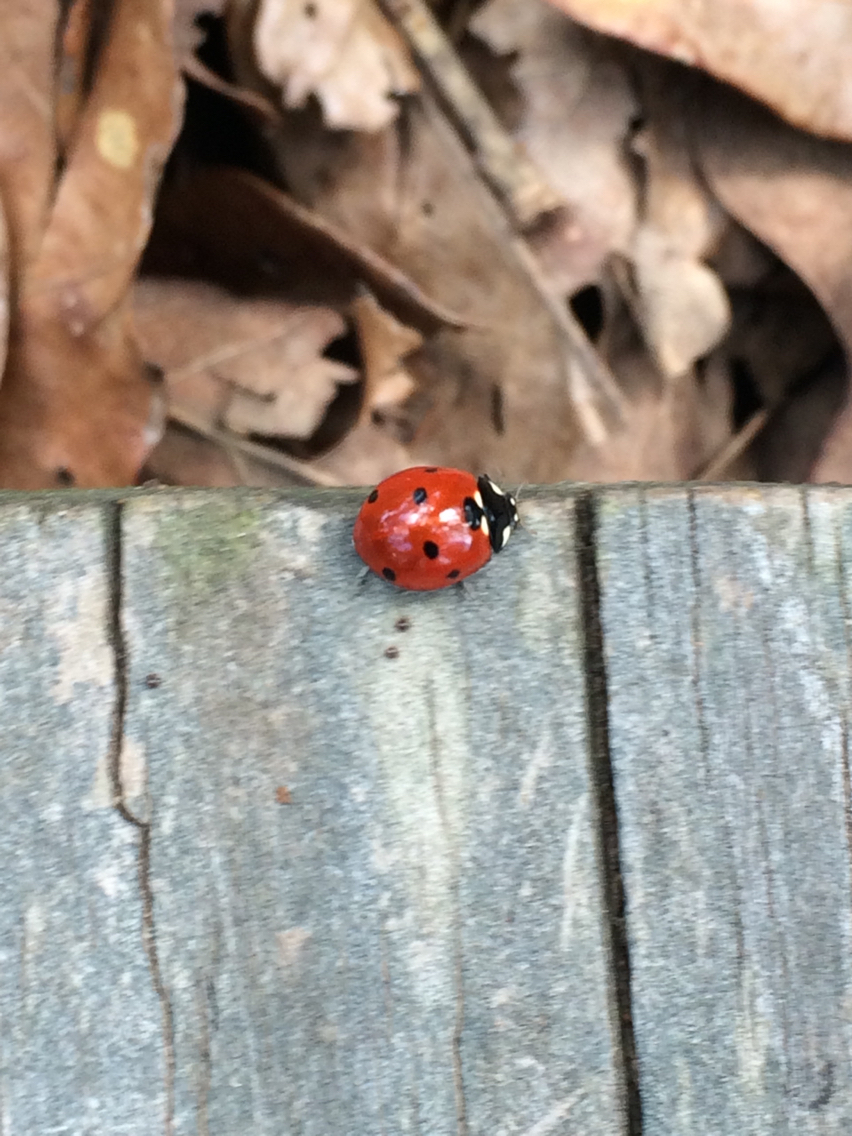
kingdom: Animalia
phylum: Arthropoda
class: Insecta
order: Coleoptera
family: Coccinellidae
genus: Coccinella
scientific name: Coccinella septempunctata
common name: Sevenspotted lady beetle
